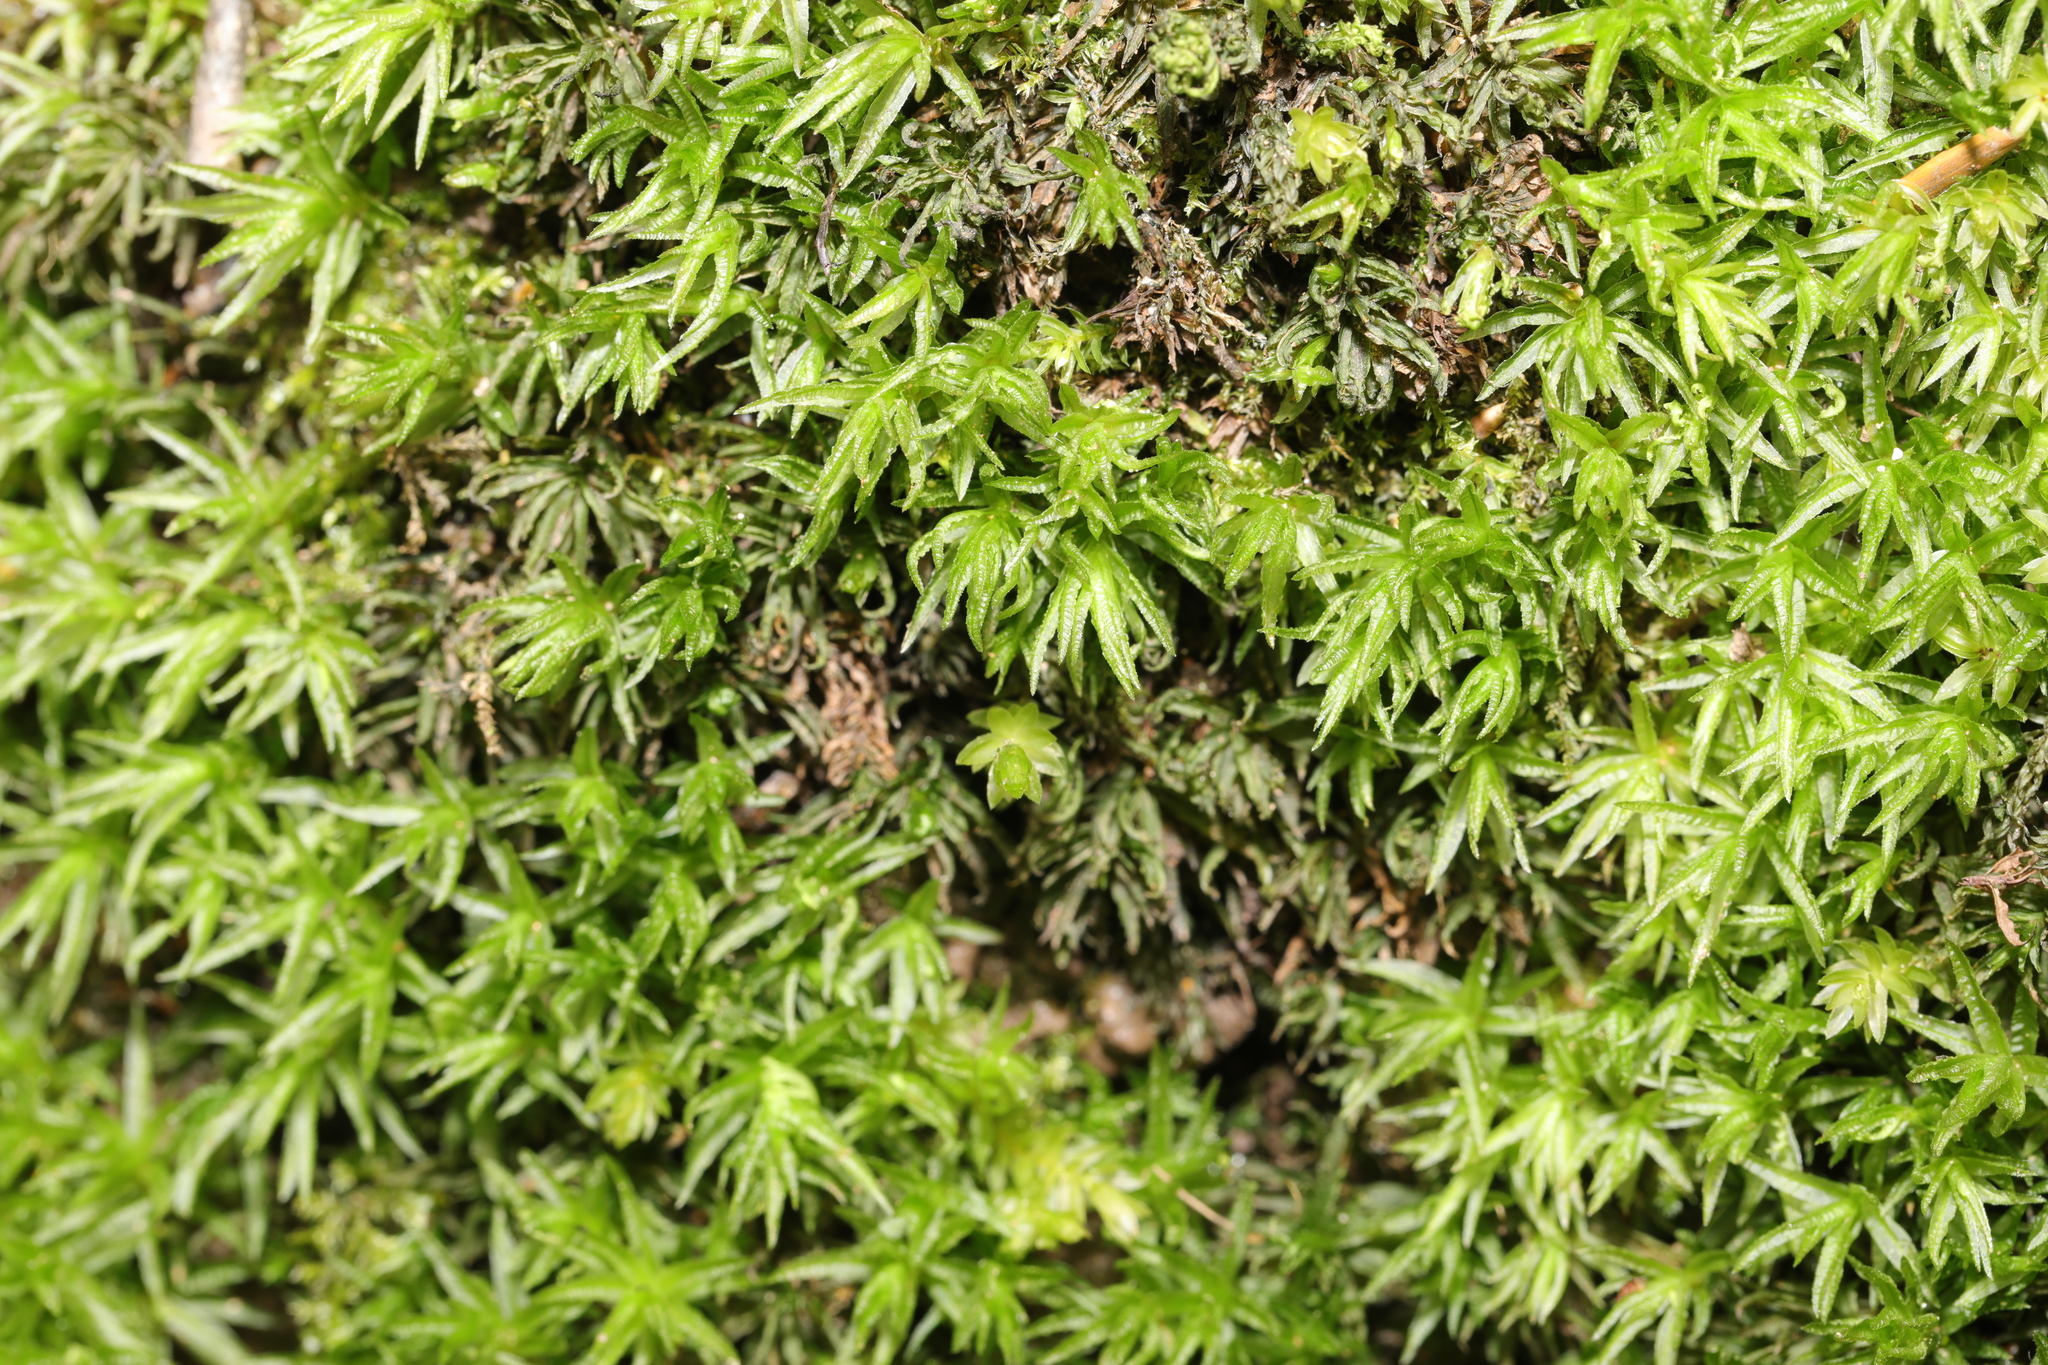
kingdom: Plantae
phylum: Bryophyta
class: Polytrichopsida
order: Polytrichales
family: Polytrichaceae
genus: Atrichum
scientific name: Atrichum undulatum
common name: Common smoothcap
